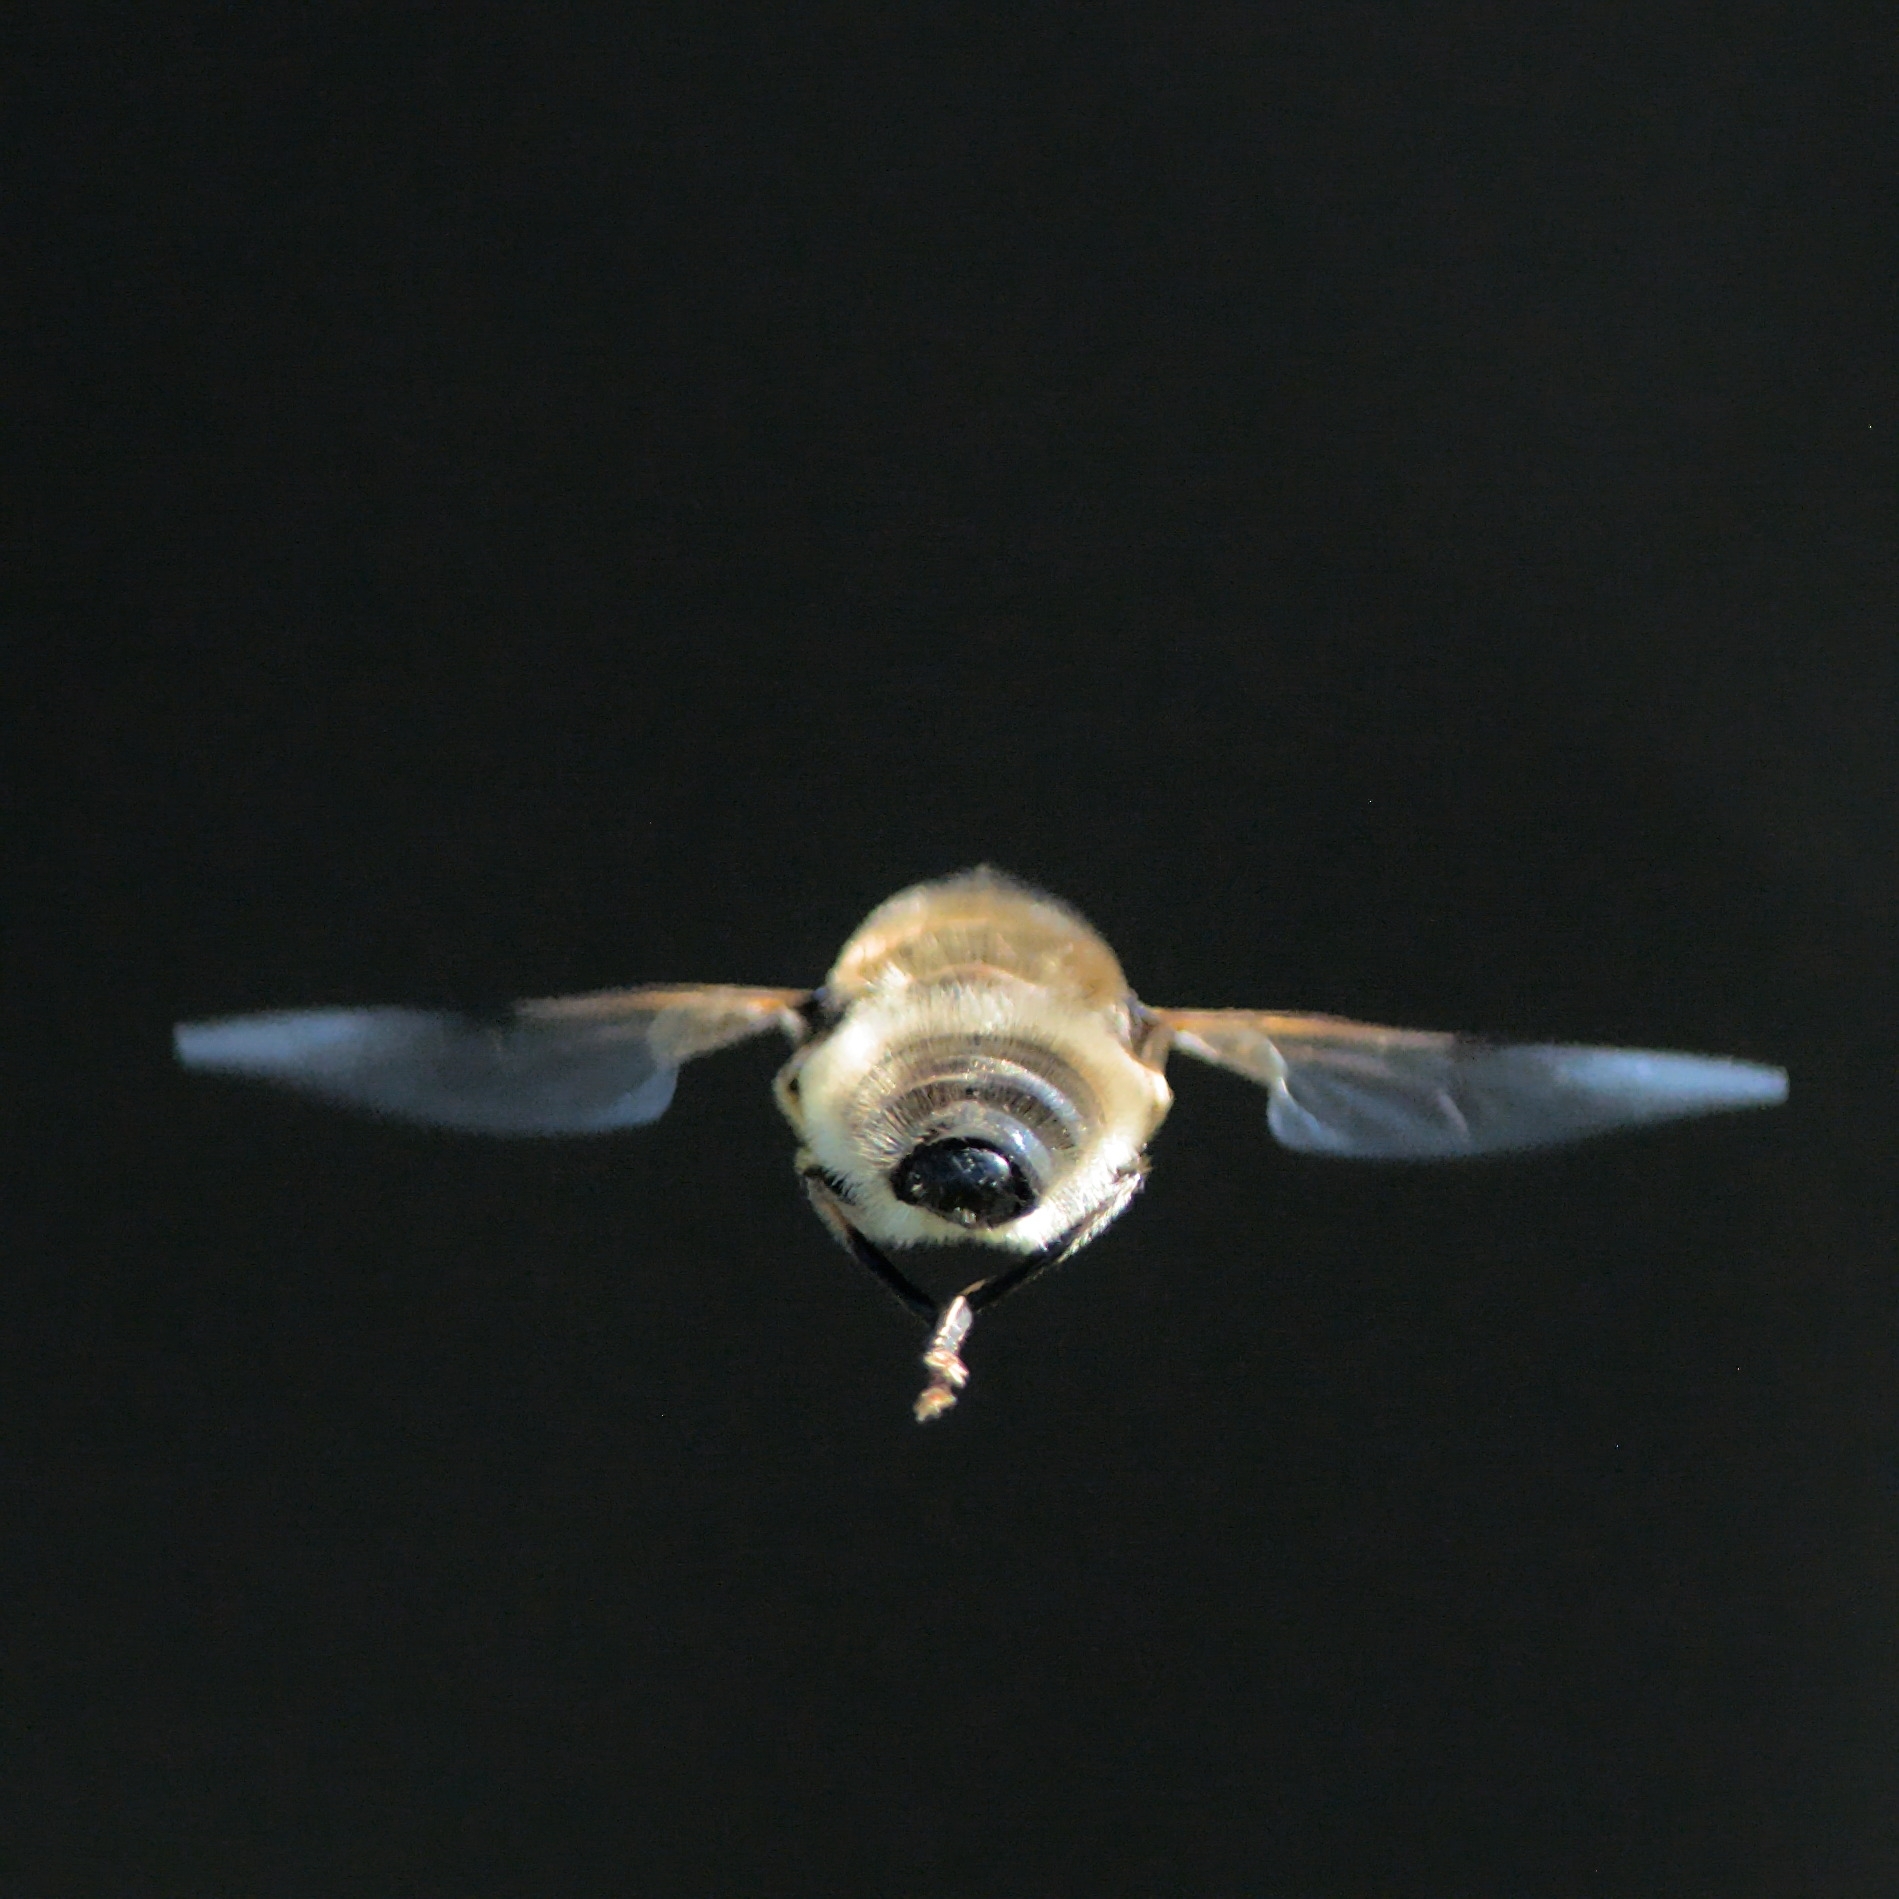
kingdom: Animalia
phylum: Arthropoda
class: Insecta
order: Diptera
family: Syrphidae
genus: Eristalis
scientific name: Eristalis pertinax
